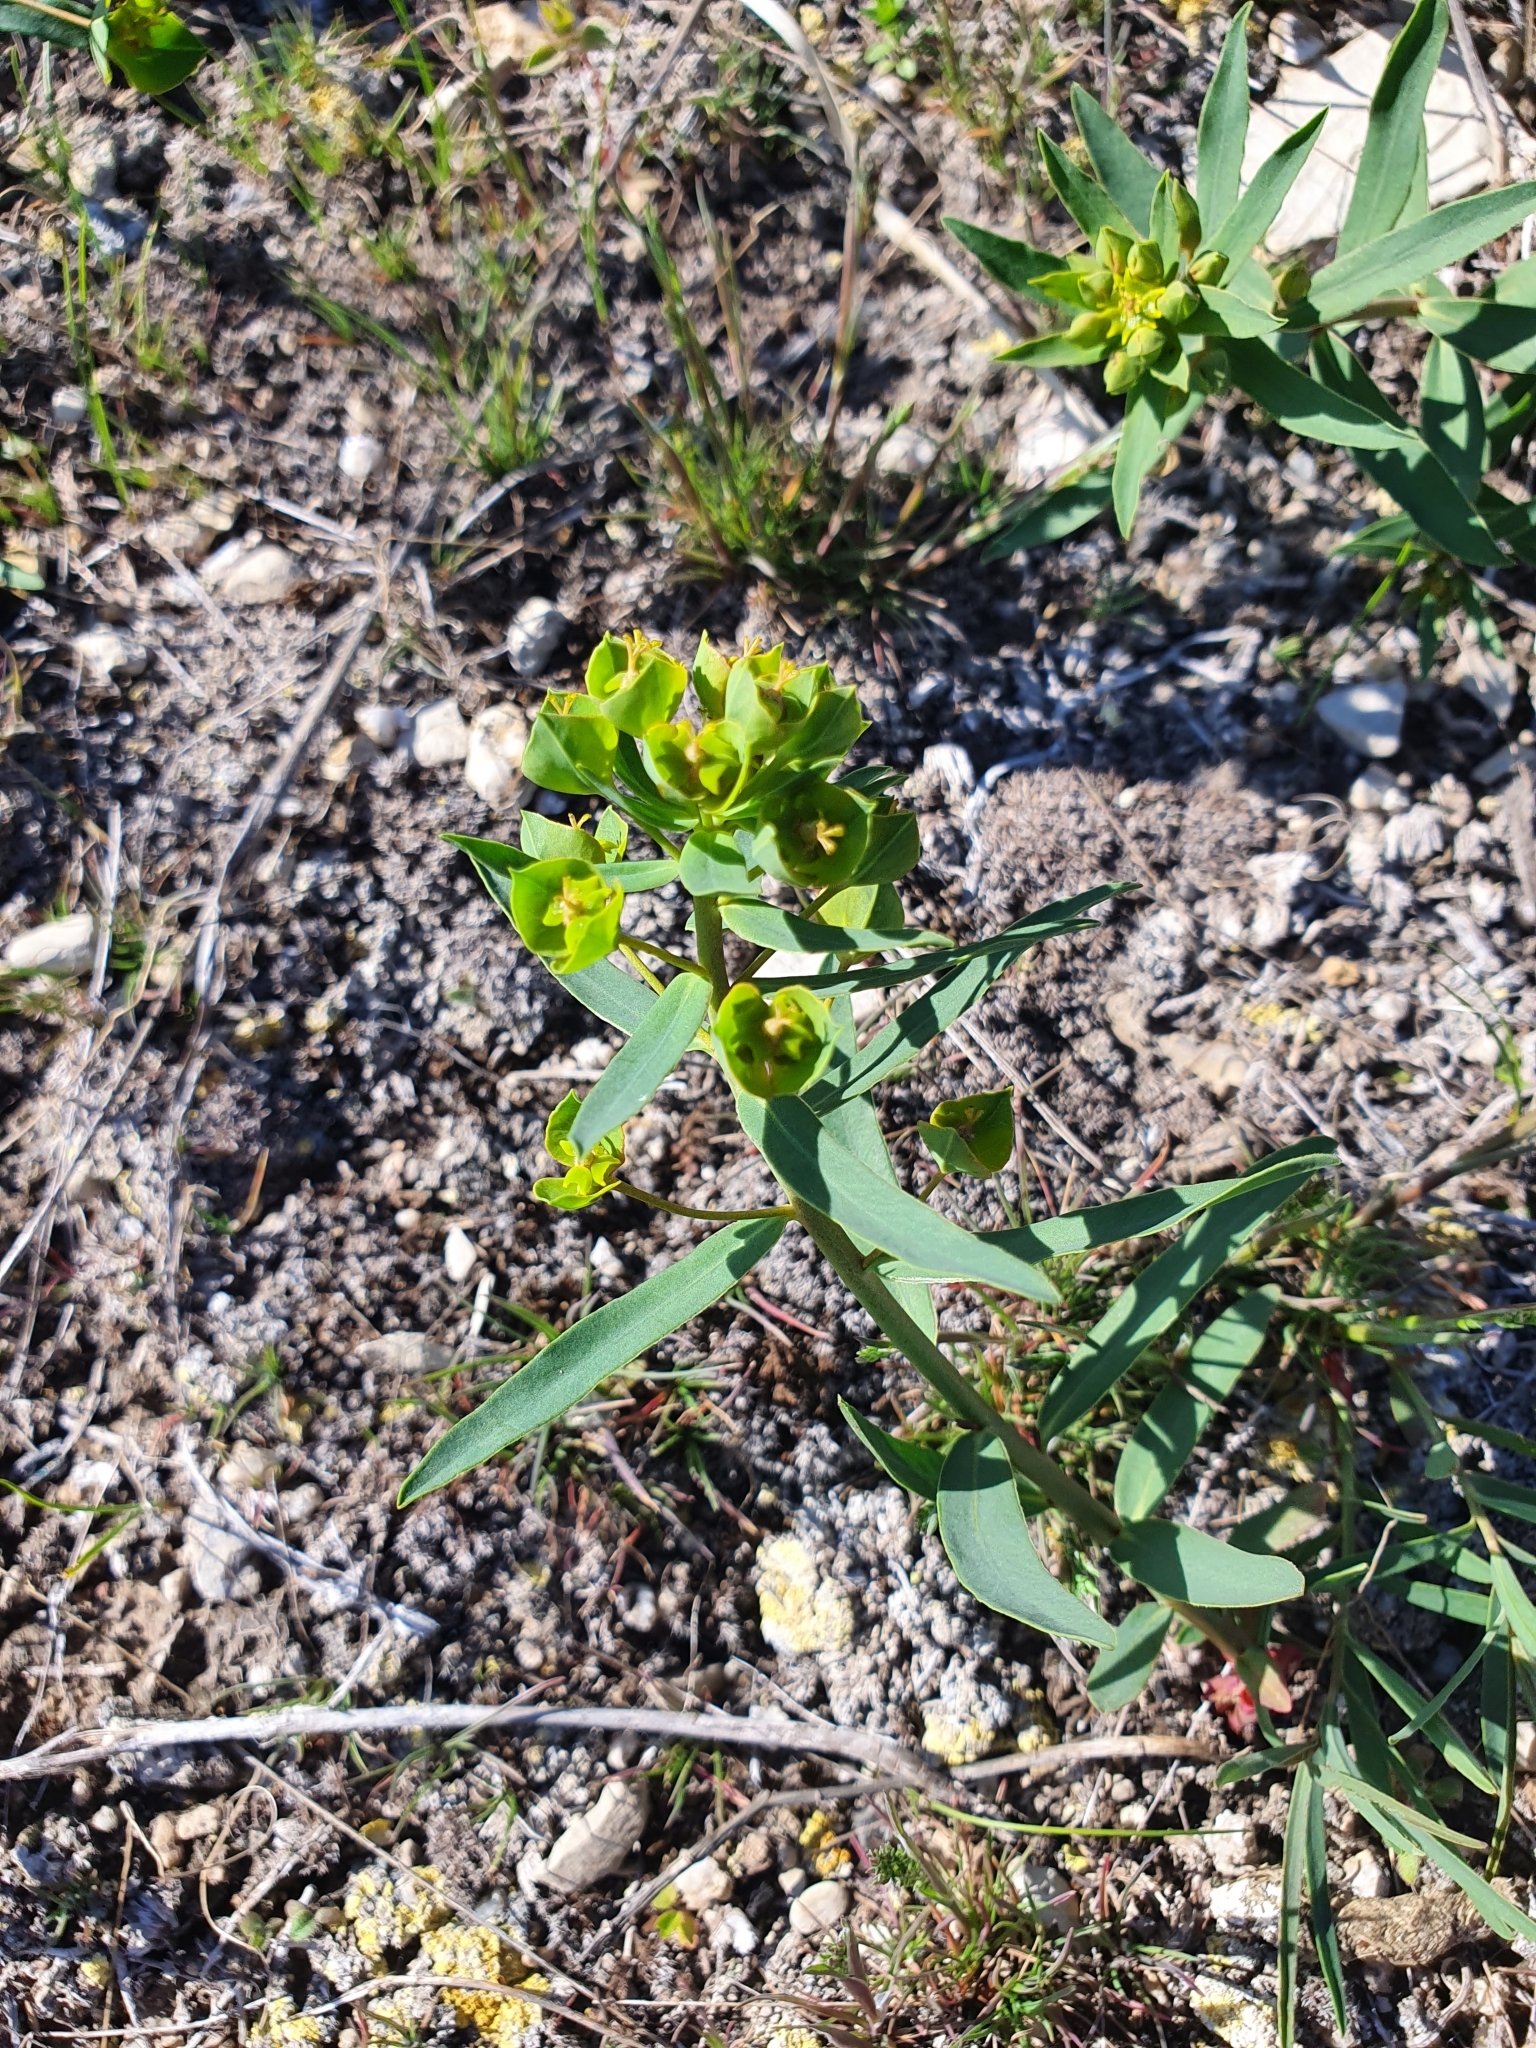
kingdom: Plantae
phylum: Tracheophyta
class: Magnoliopsida
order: Malpighiales
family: Euphorbiaceae
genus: Euphorbia
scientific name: Euphorbia caesia
